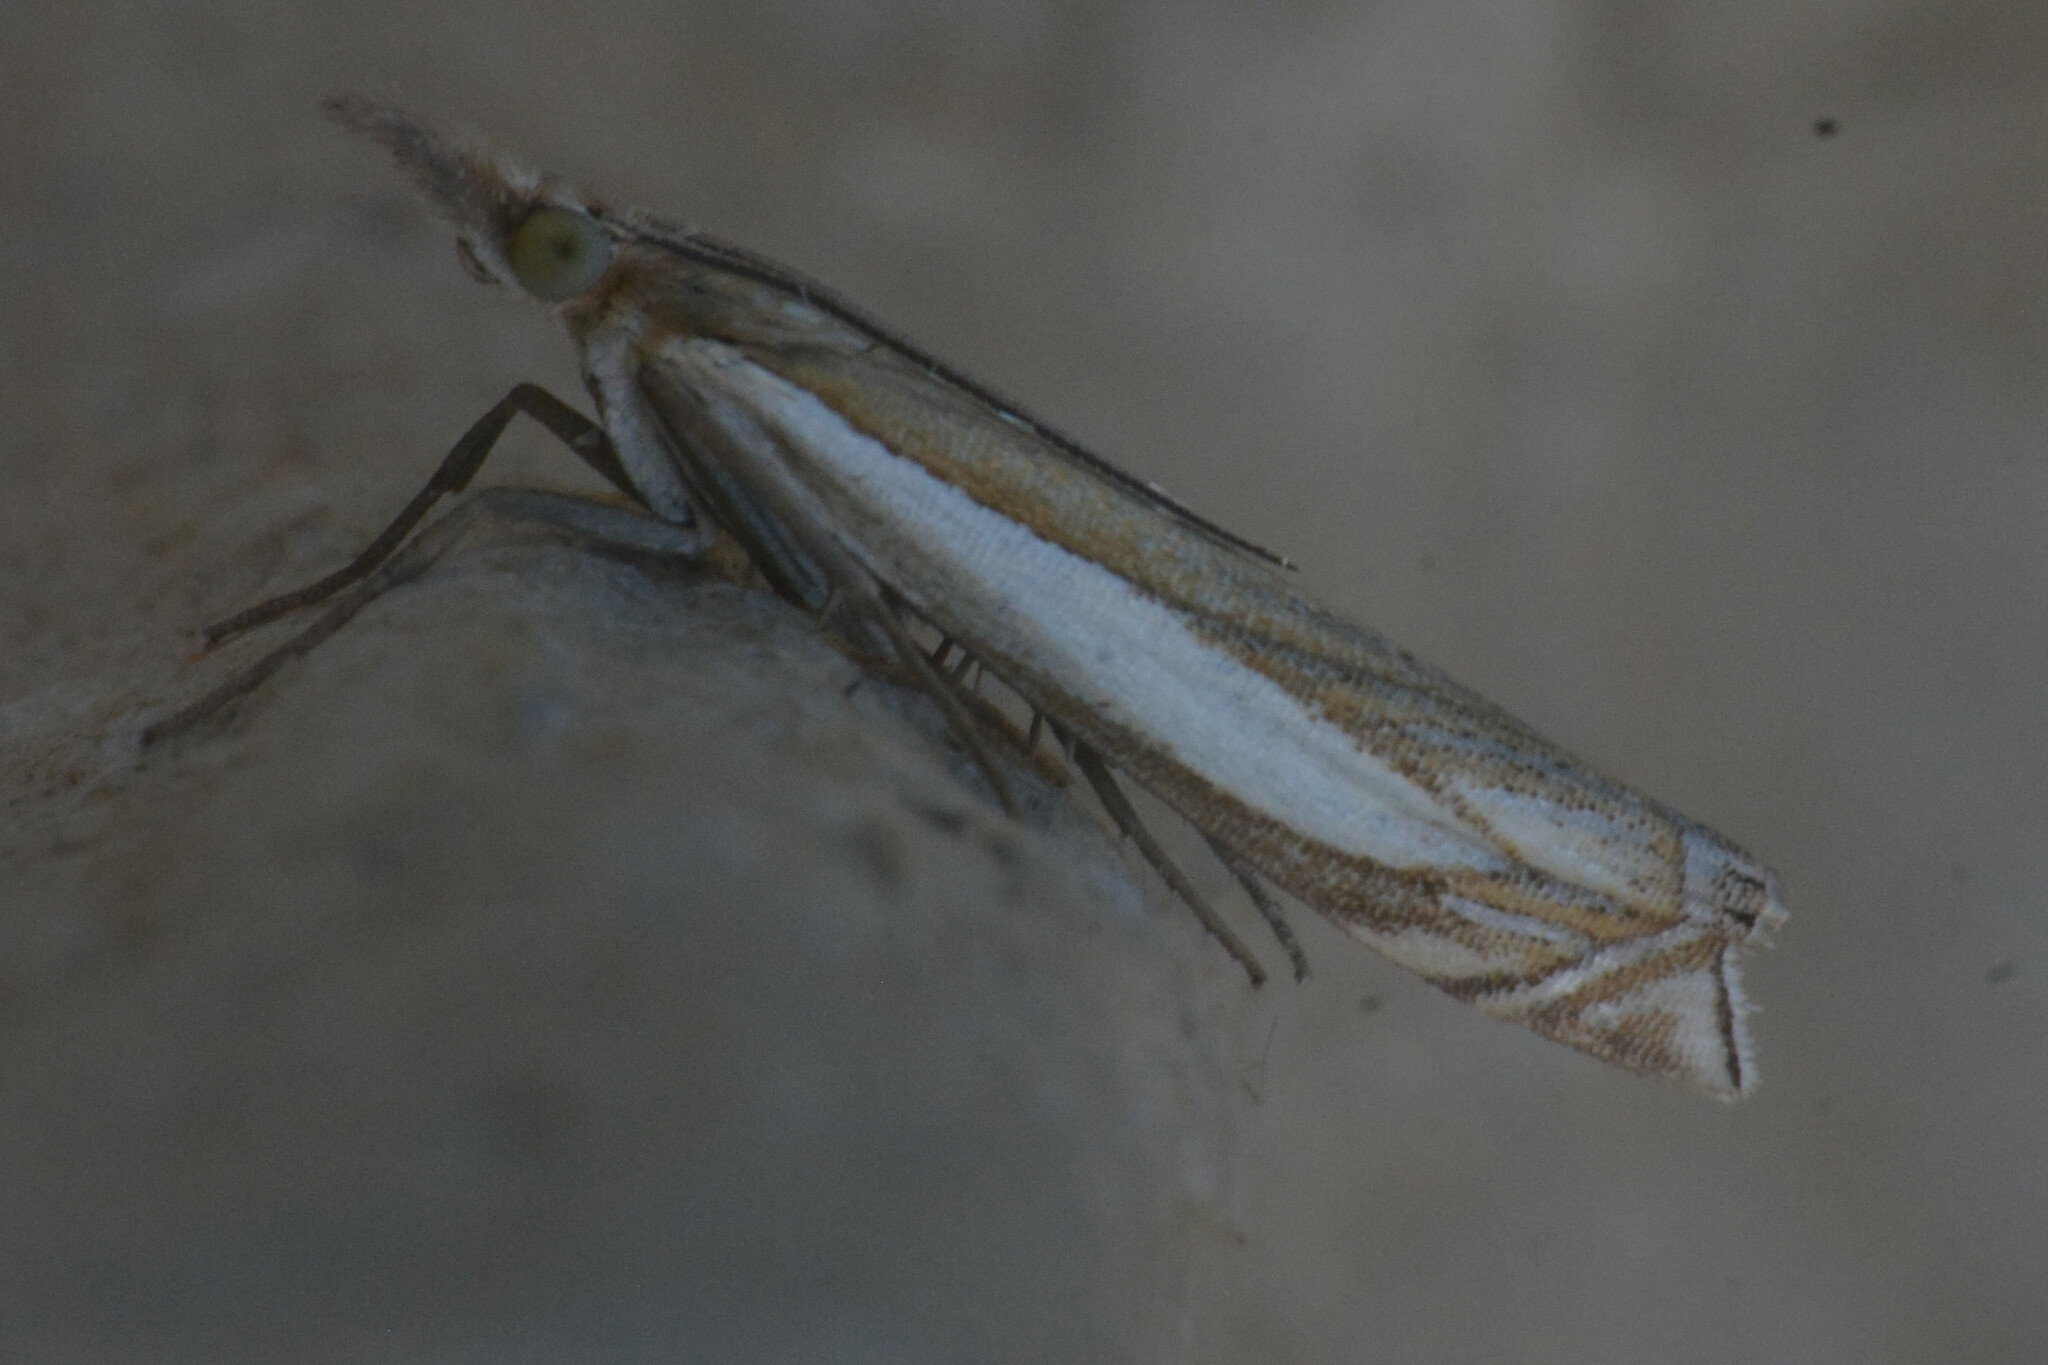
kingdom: Animalia
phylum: Arthropoda
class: Insecta
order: Lepidoptera
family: Crambidae
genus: Crambus
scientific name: Crambus pascuella
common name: Inlaid grass-veneer
